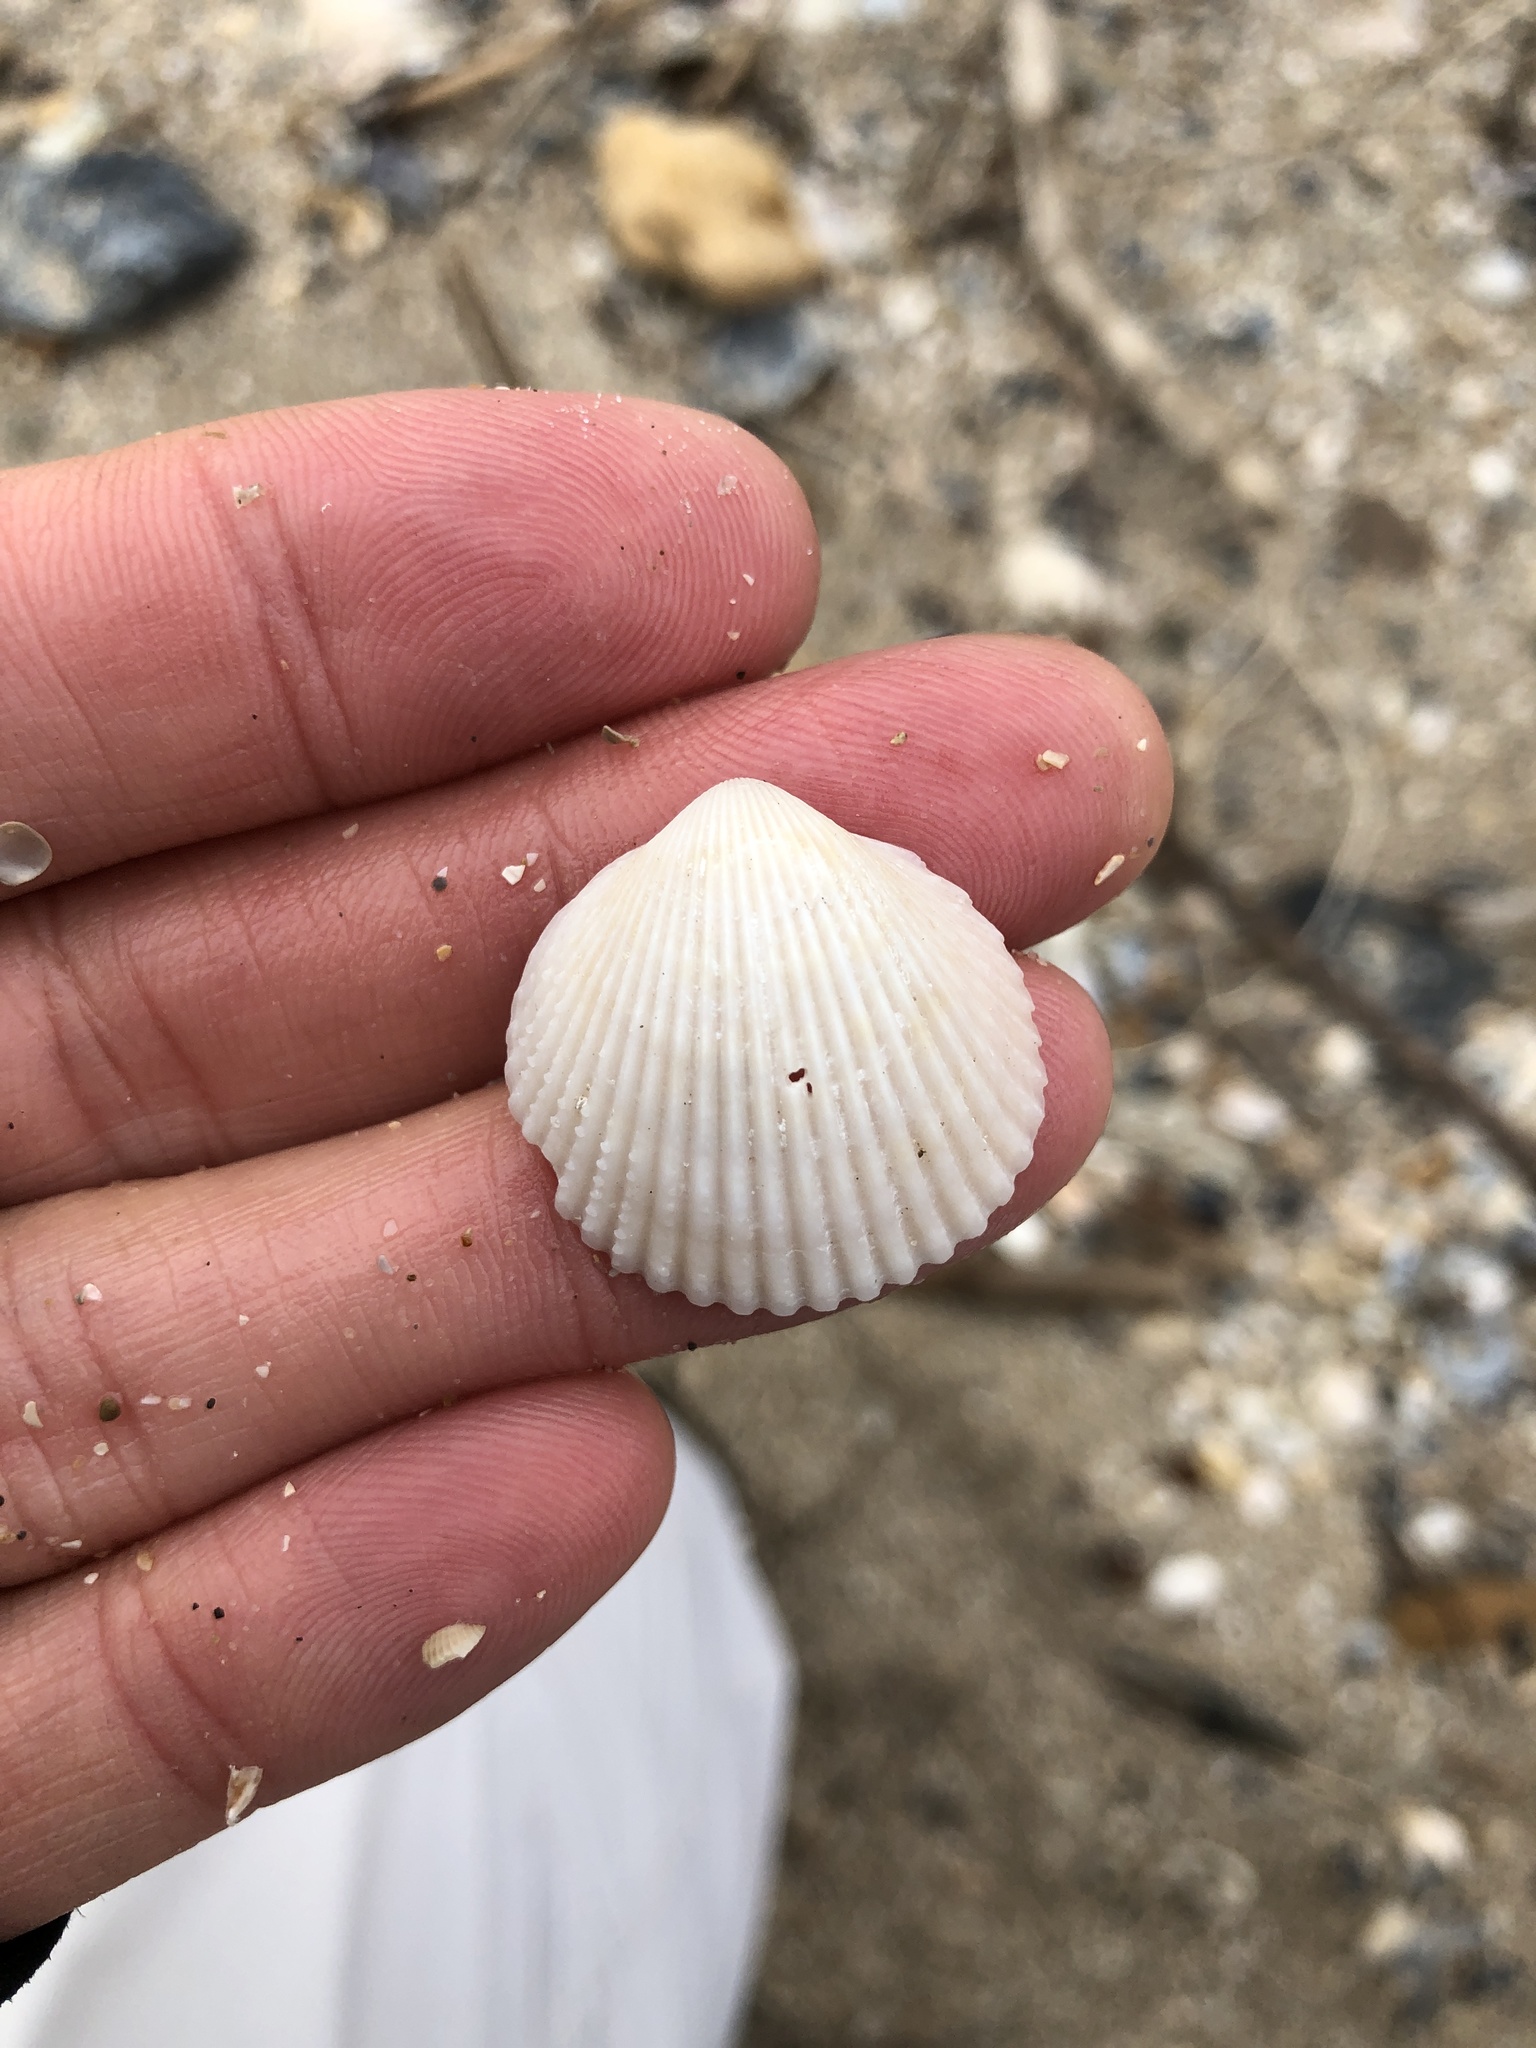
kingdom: Animalia
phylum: Mollusca
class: Bivalvia
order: Cardiida
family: Cardiidae
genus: Dallocardia
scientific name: Dallocardia muricata
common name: Yellow pricklycockle
